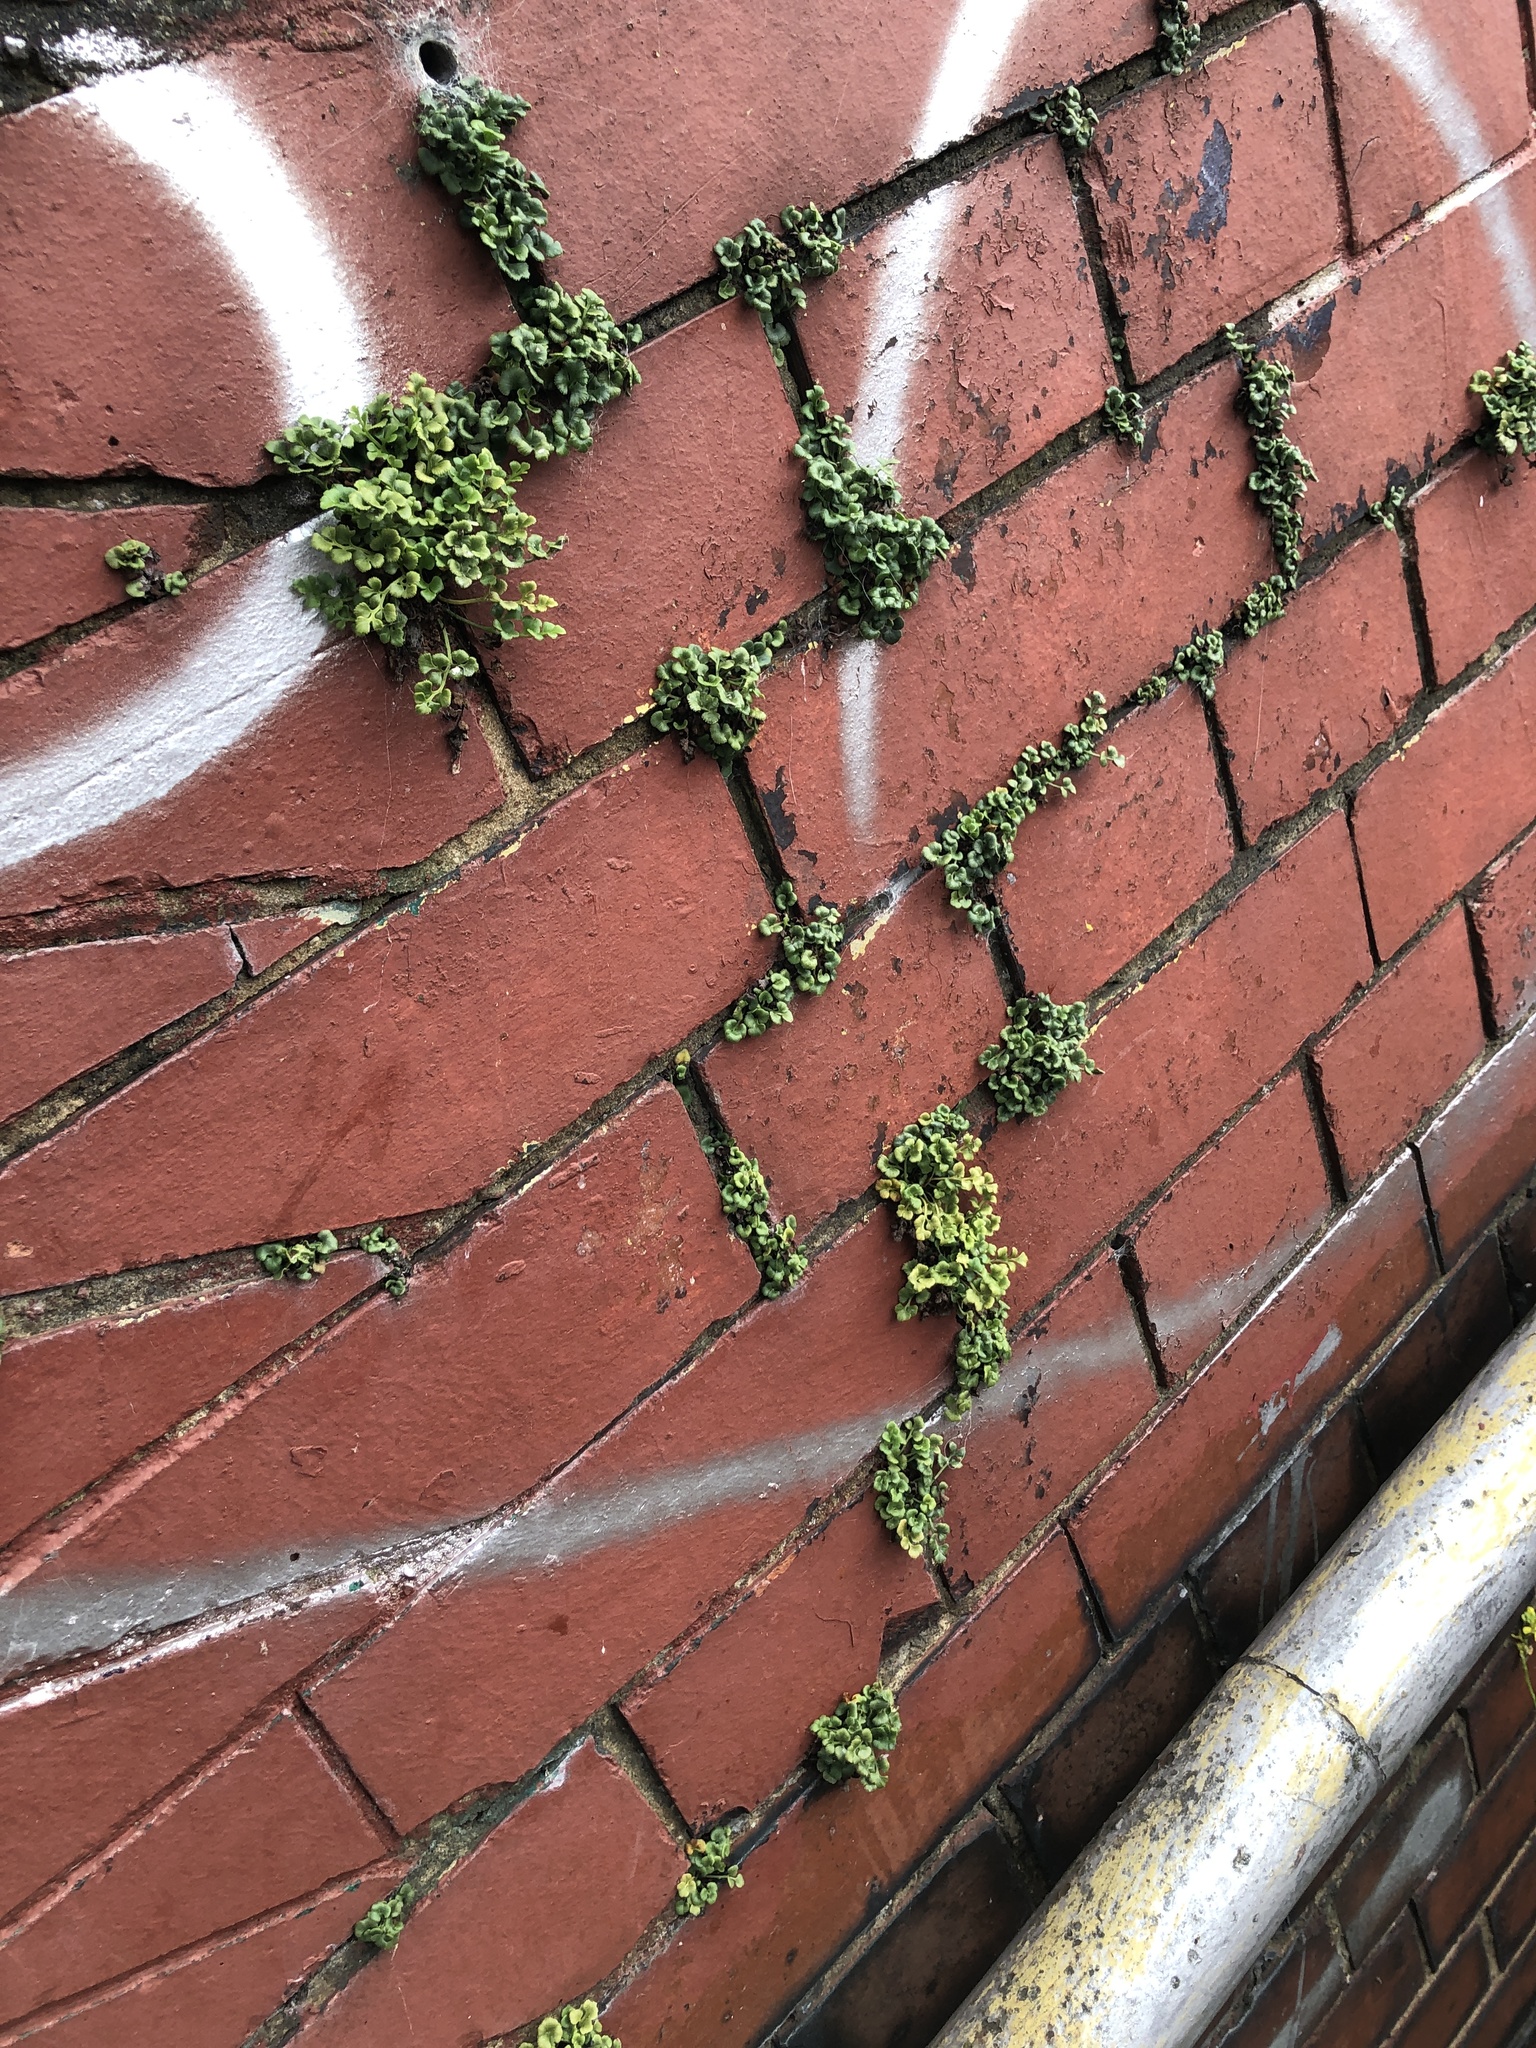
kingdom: Plantae
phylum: Tracheophyta
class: Polypodiopsida
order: Polypodiales
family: Aspleniaceae
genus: Asplenium
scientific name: Asplenium ruta-muraria
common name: Wall-rue
